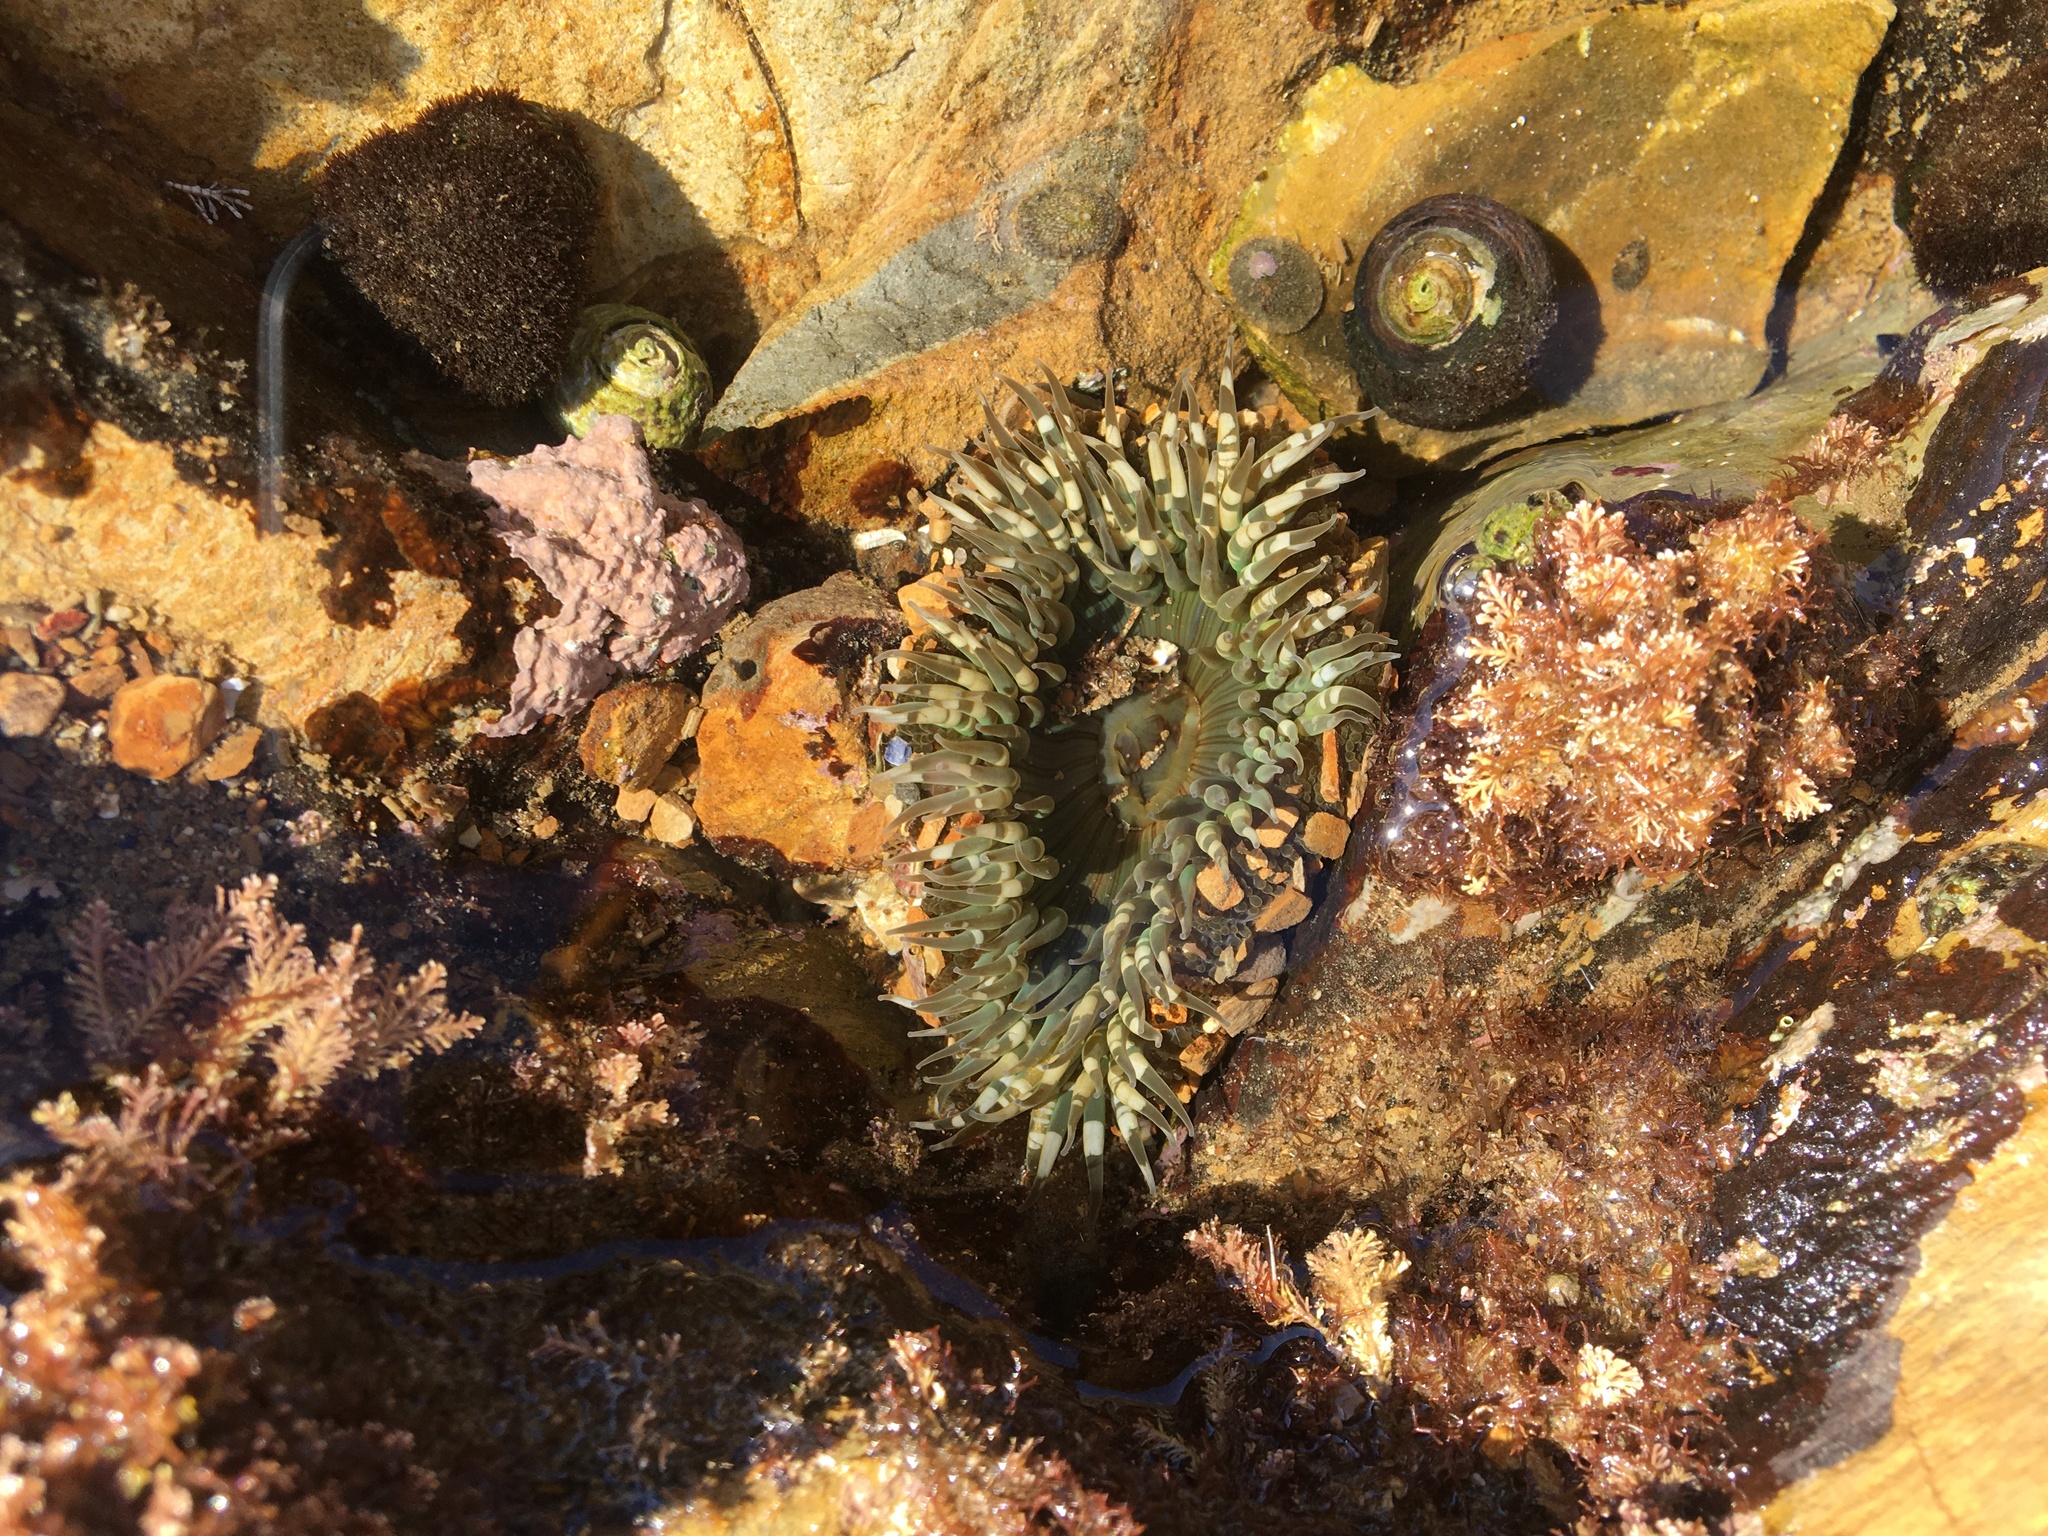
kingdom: Animalia
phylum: Cnidaria
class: Anthozoa
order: Actiniaria
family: Actiniidae
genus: Anthopleura
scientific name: Anthopleura sola
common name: Sun anemone
